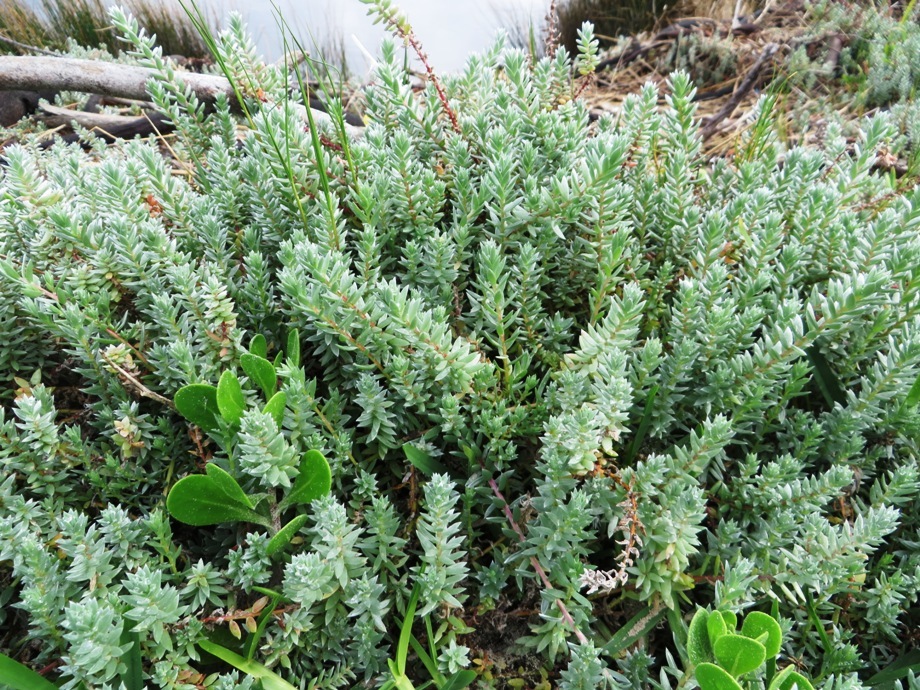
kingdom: Plantae
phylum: Tracheophyta
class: Magnoliopsida
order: Caryophyllales
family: Amaranthaceae
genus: Chenolea
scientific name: Chenolea diffusa
